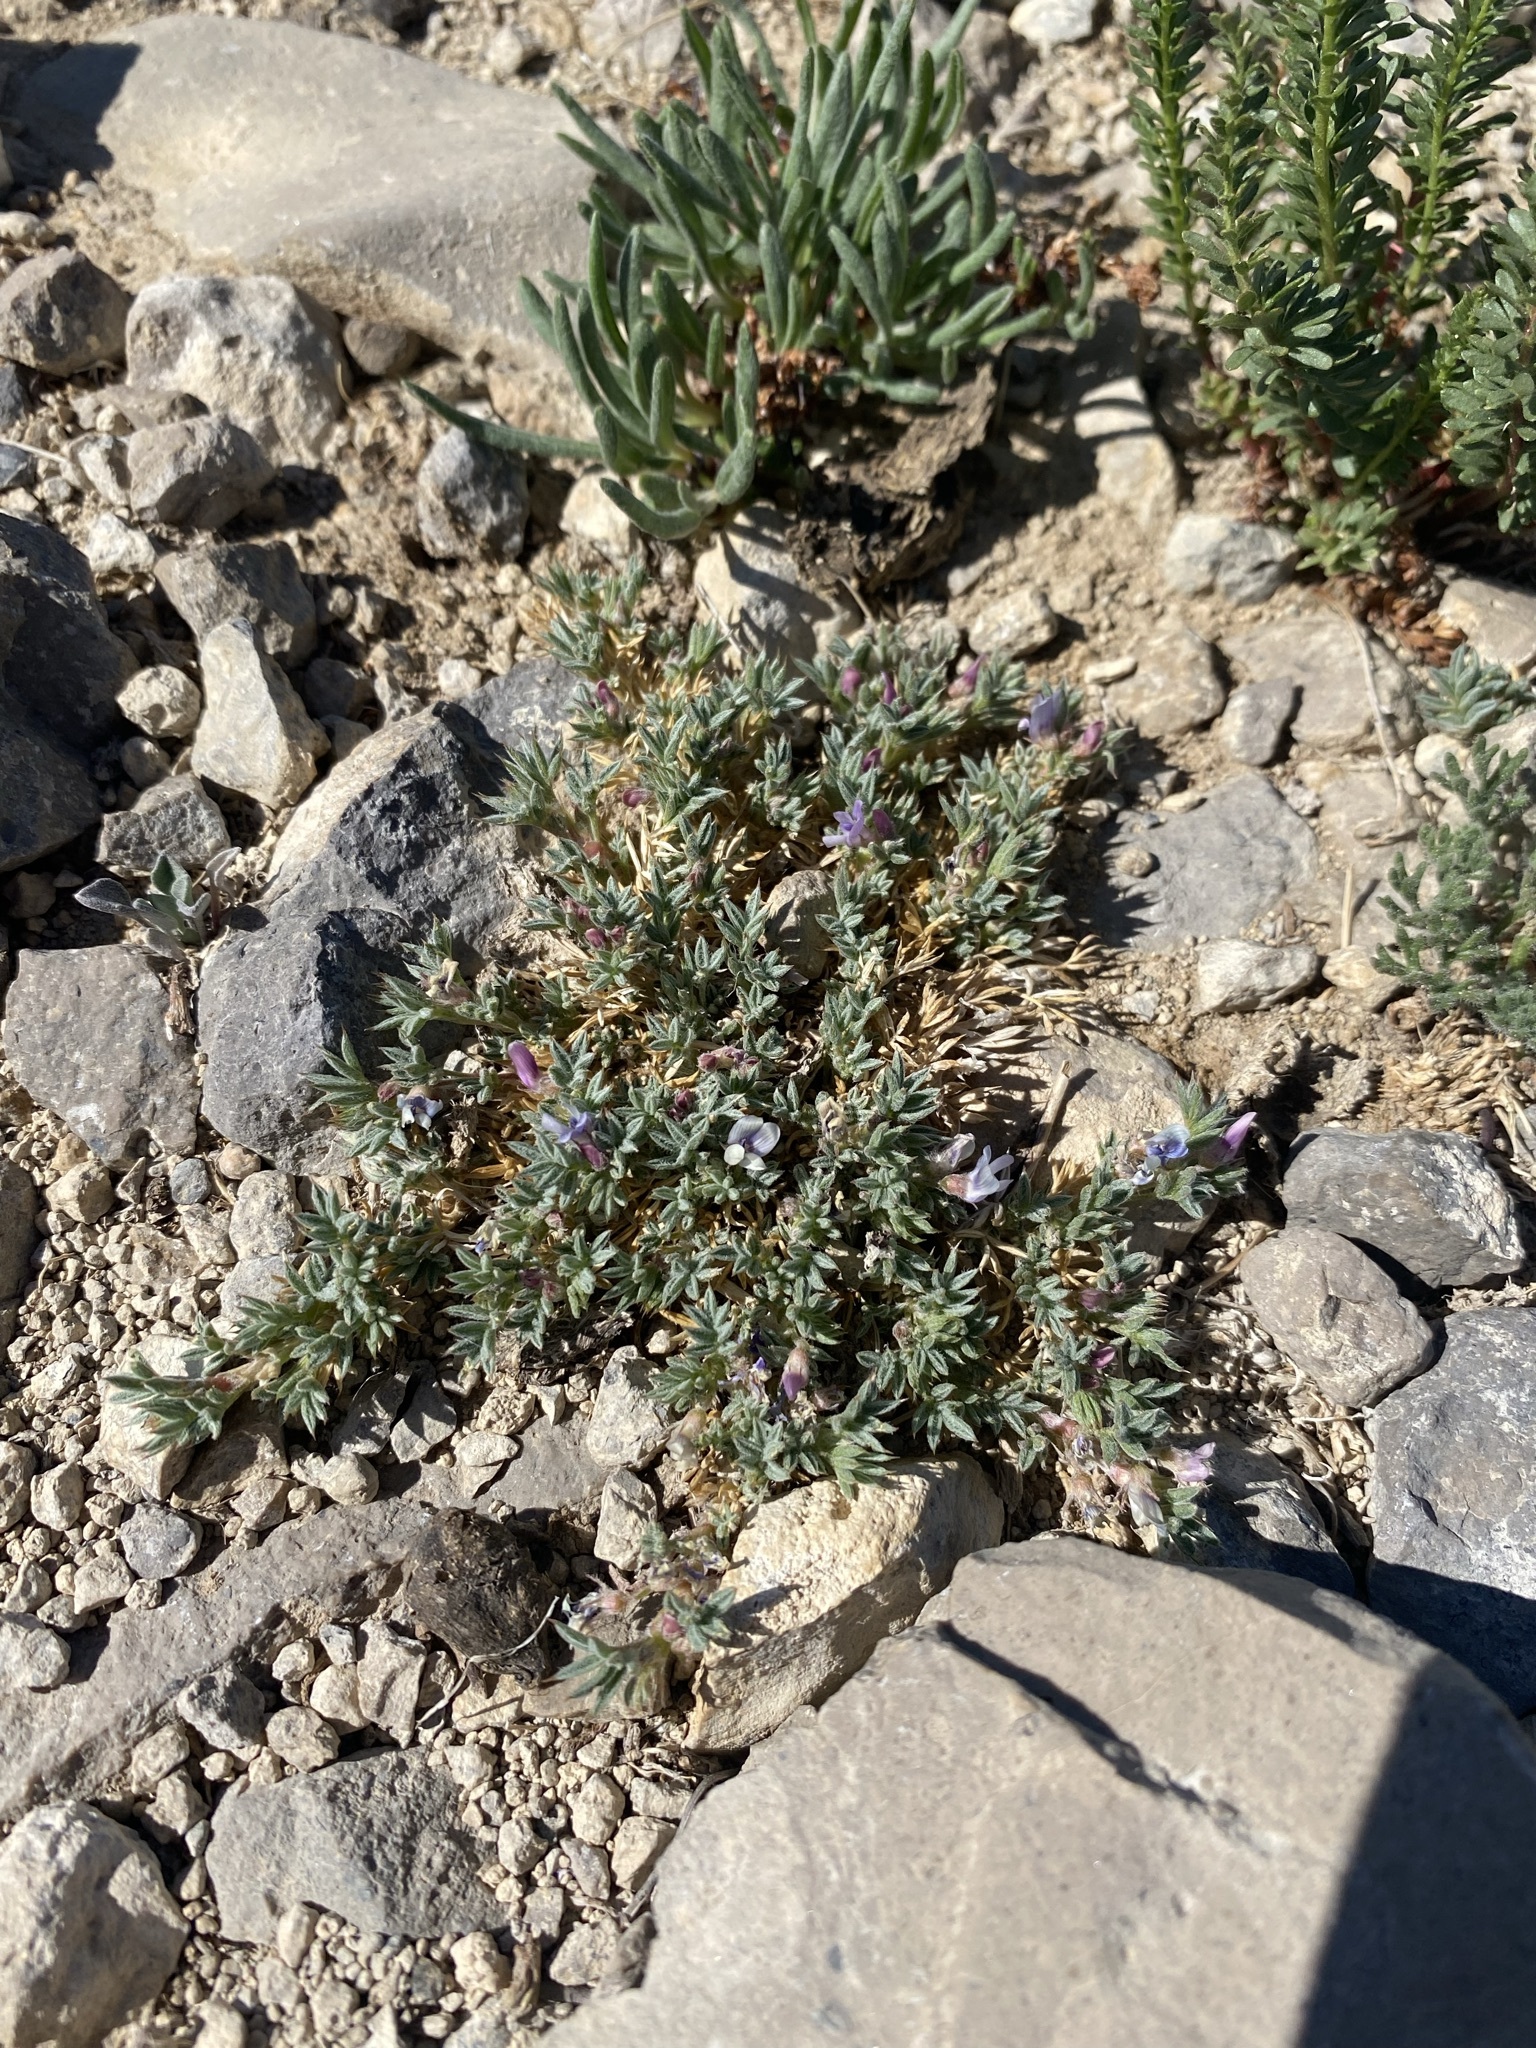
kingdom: Plantae
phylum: Tracheophyta
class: Magnoliopsida
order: Fabales
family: Fabaceae
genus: Astragalus
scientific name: Astragalus kentrophyta
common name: Prickly milk-vetch
